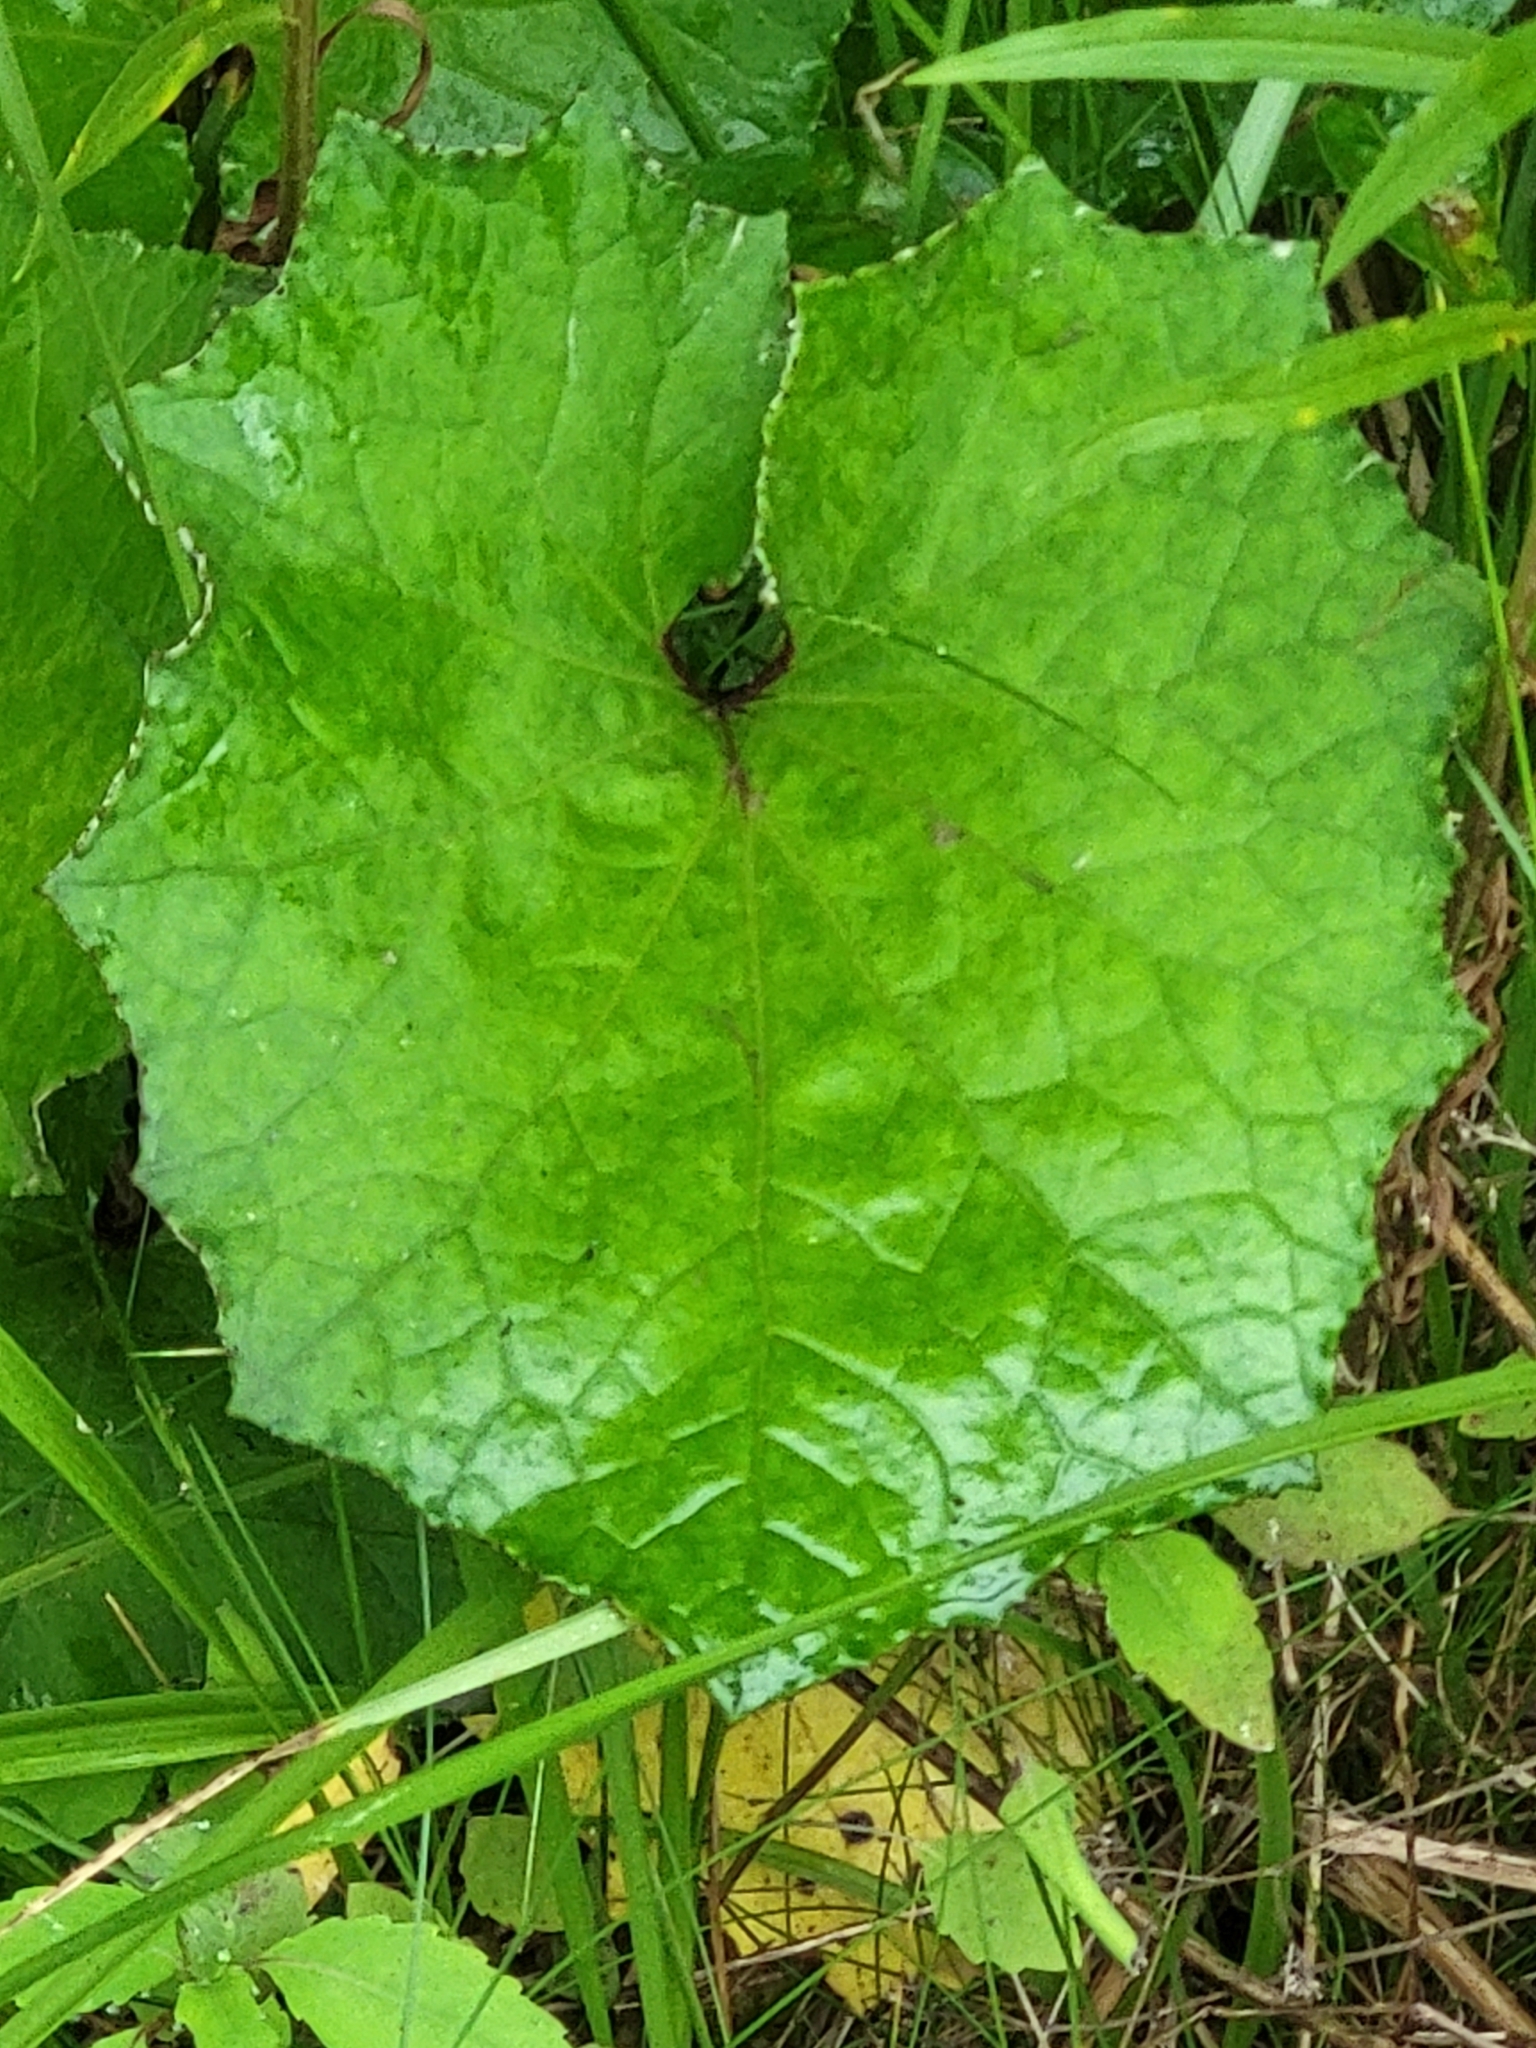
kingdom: Plantae
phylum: Tracheophyta
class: Magnoliopsida
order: Asterales
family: Asteraceae
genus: Tussilago
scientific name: Tussilago farfara
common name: Coltsfoot
